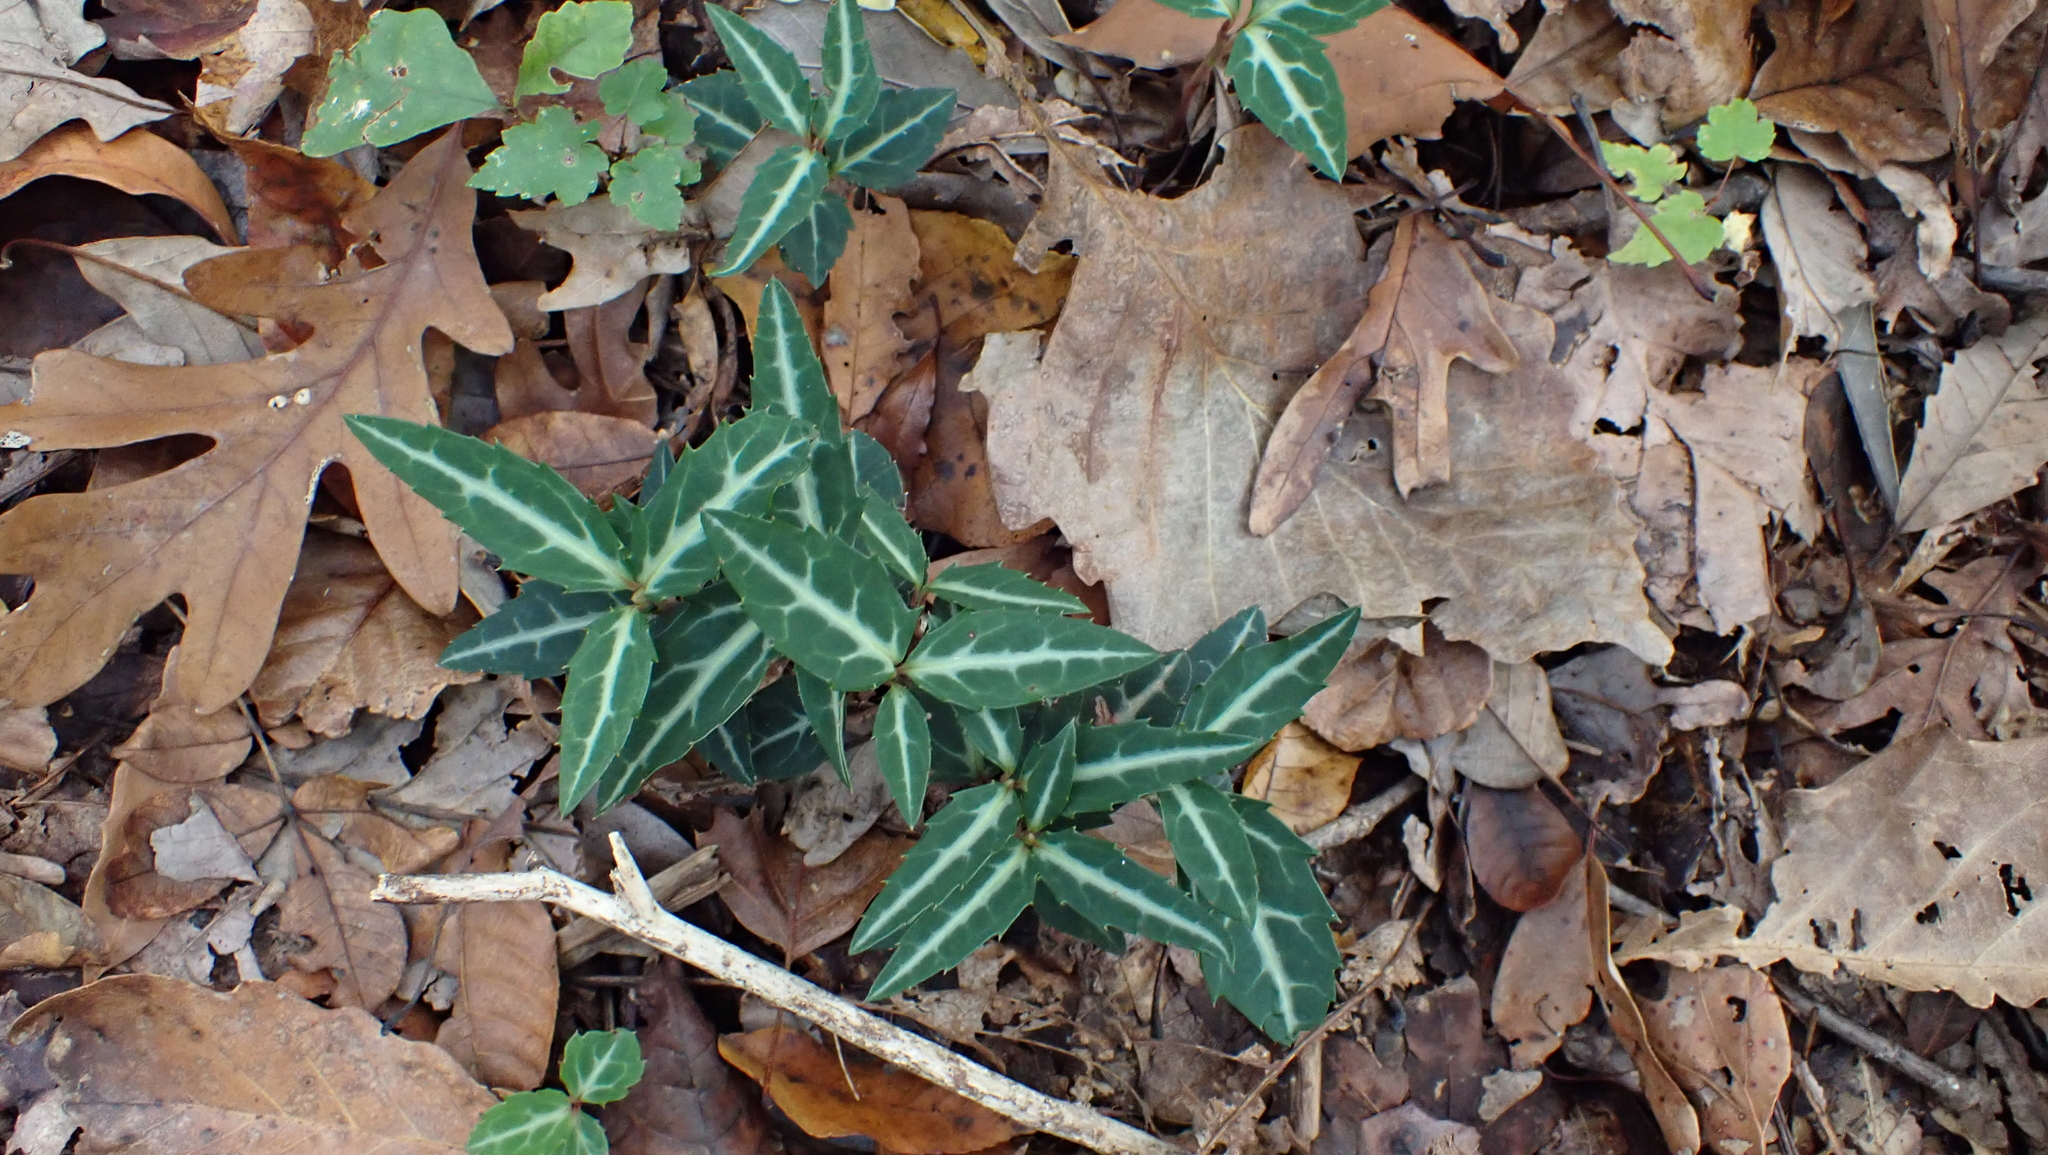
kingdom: Plantae
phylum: Tracheophyta
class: Magnoliopsida
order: Ericales
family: Ericaceae
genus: Chimaphila
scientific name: Chimaphila maculata
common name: Spotted pipsissewa
